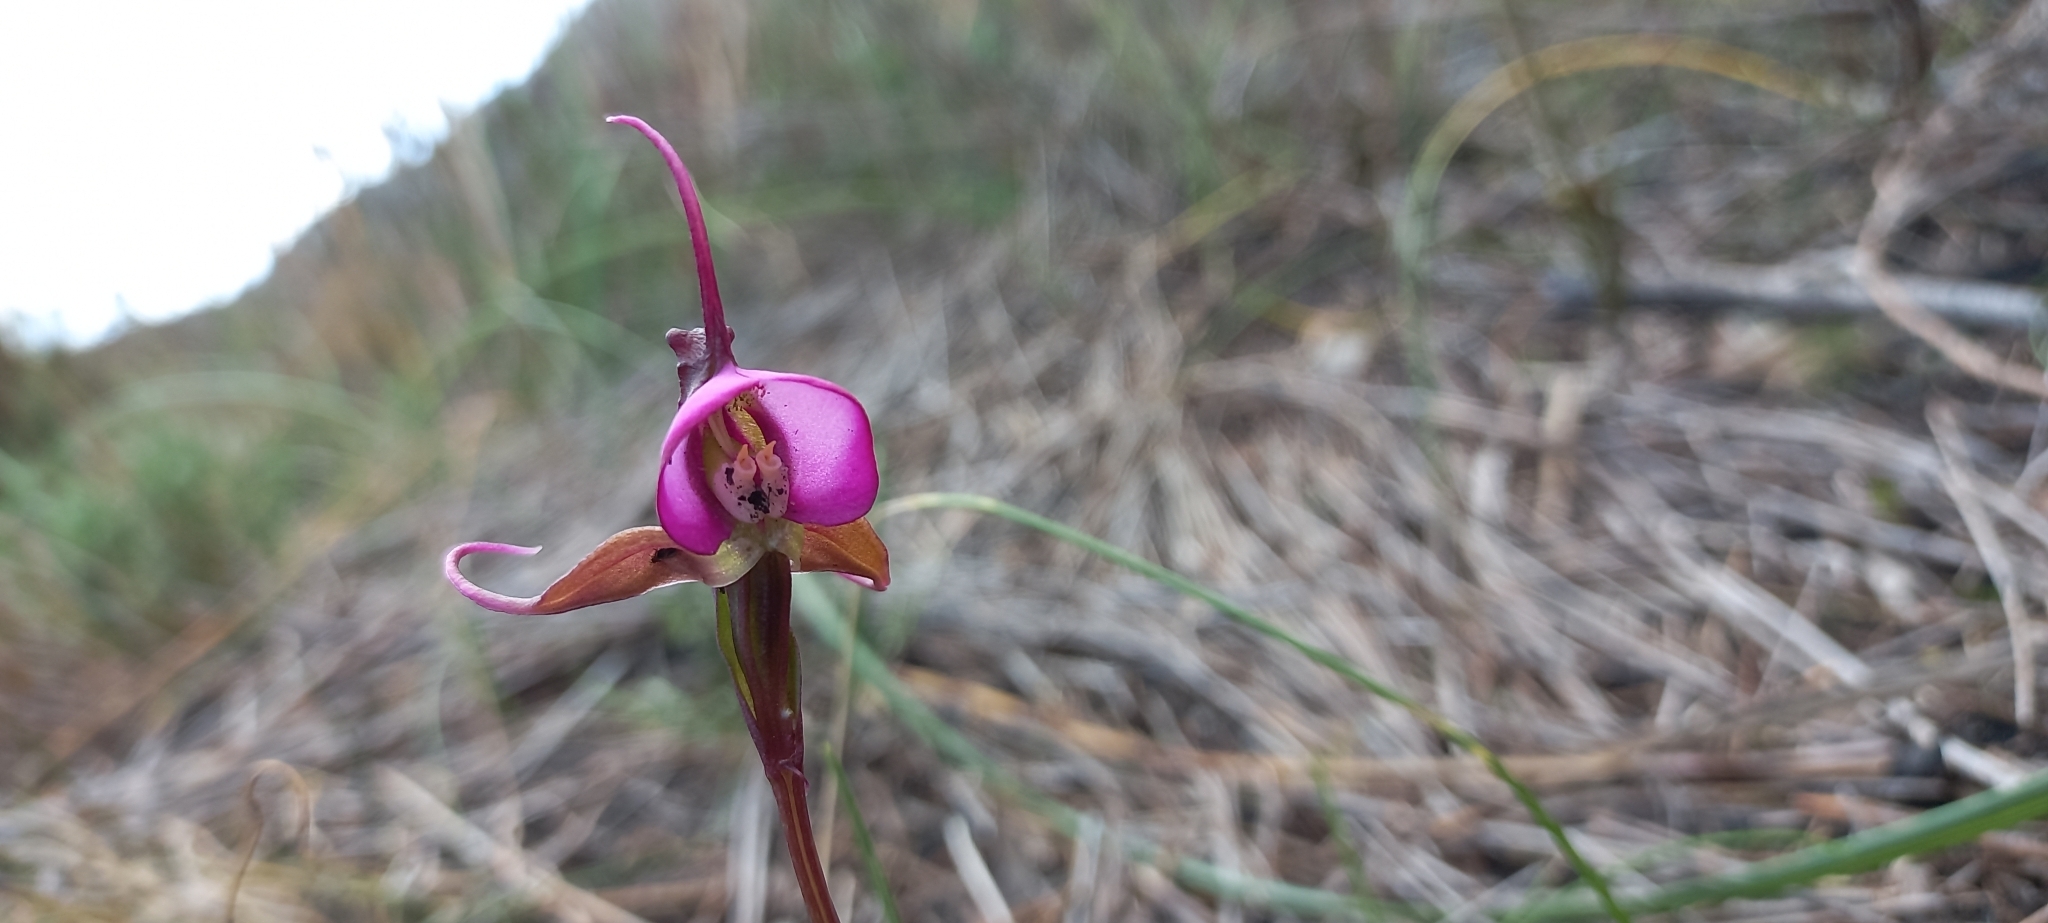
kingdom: Plantae
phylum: Tracheophyta
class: Liliopsida
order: Asparagales
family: Orchidaceae
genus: Disperis
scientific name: Disperis capensis
